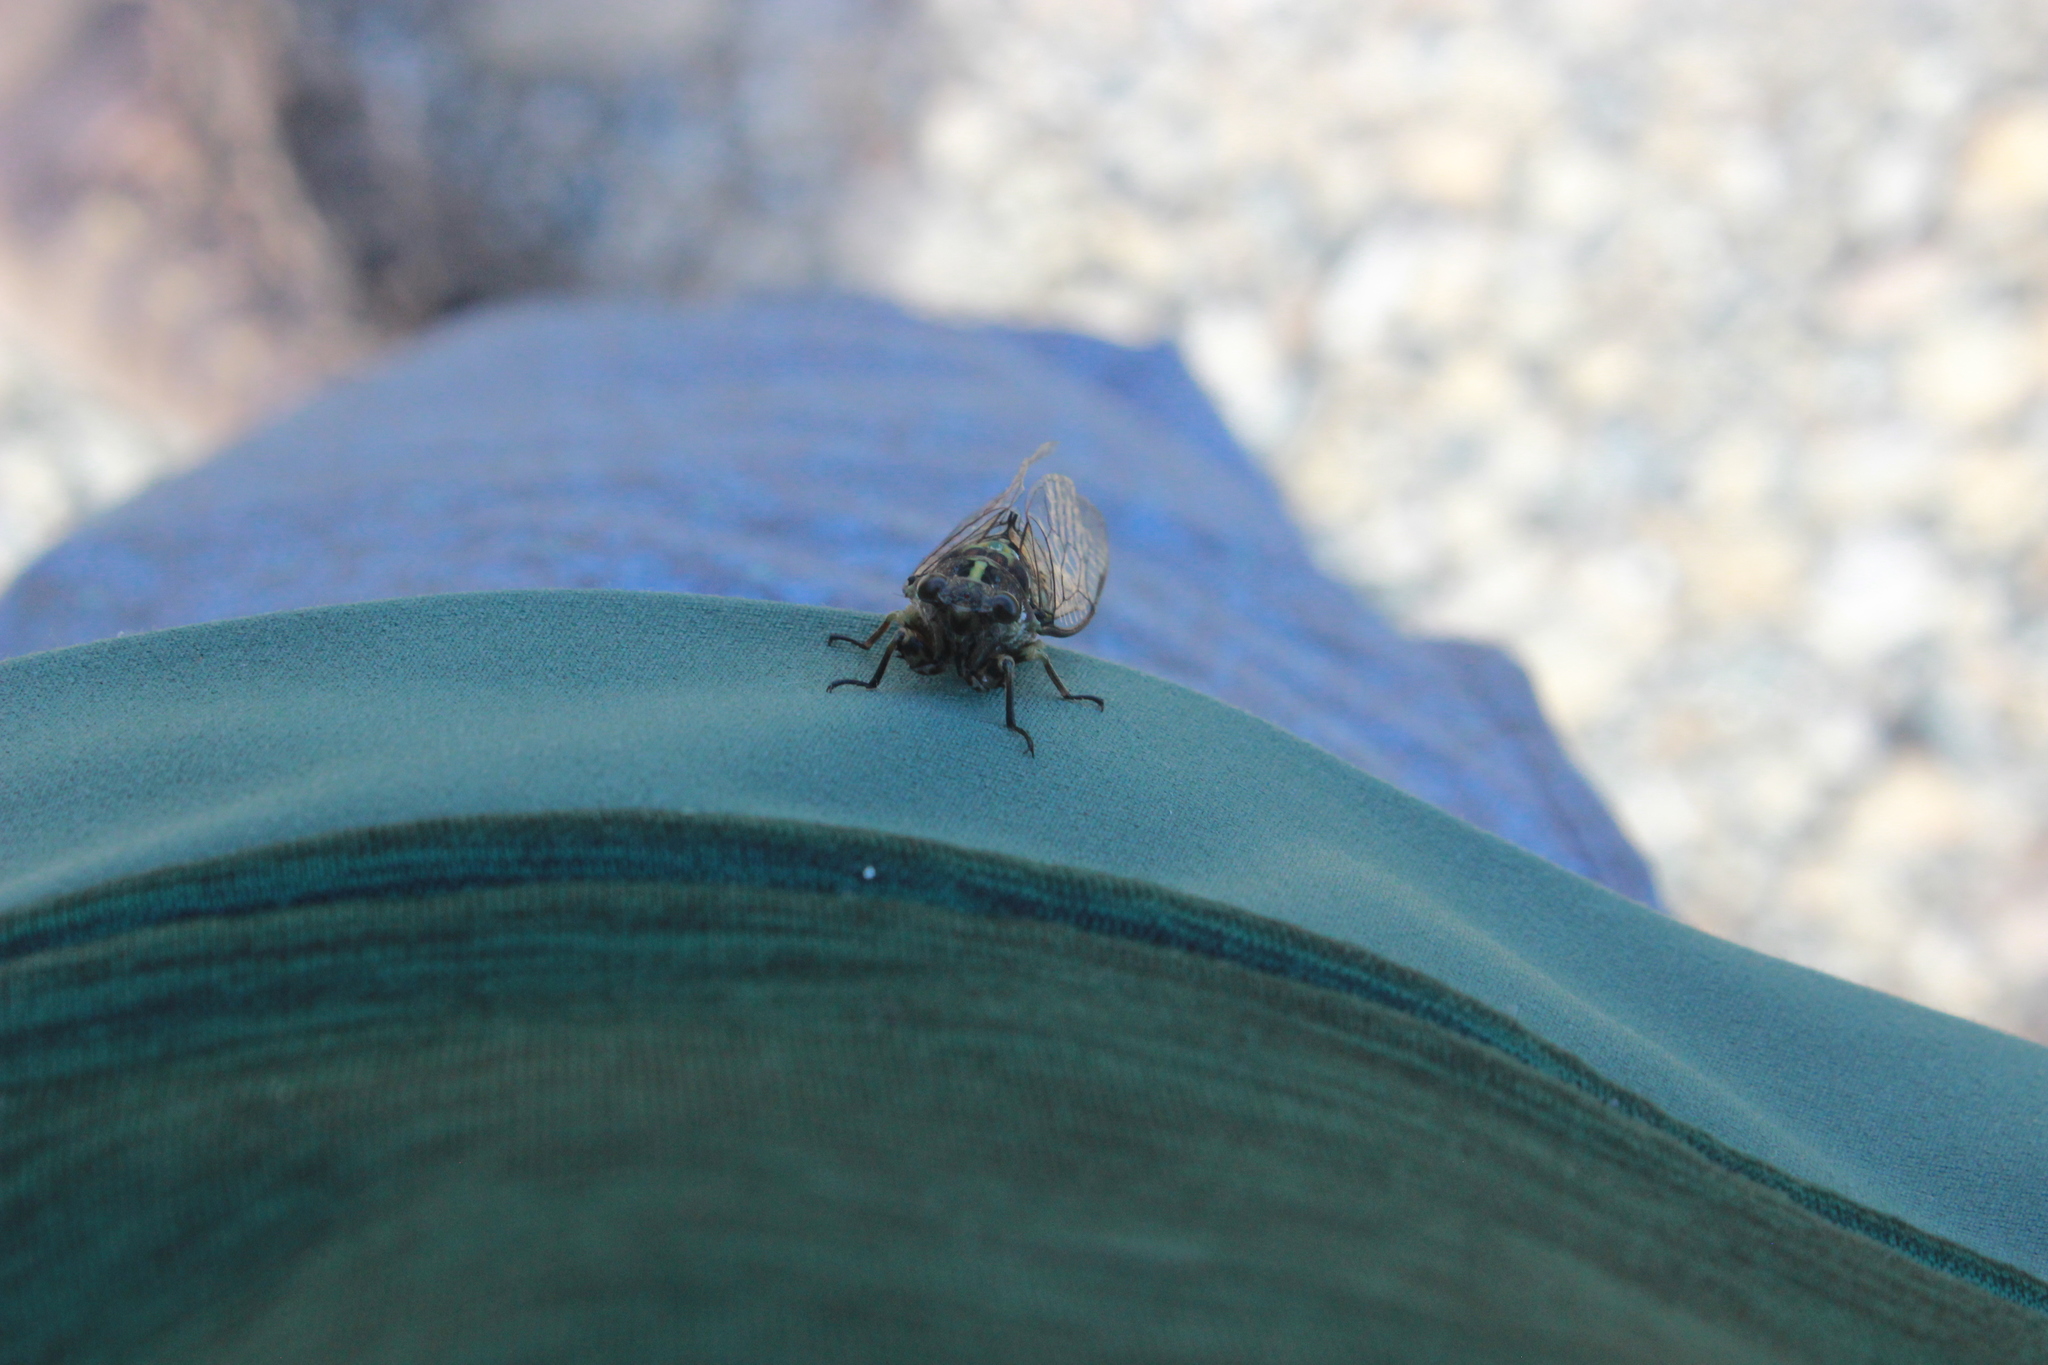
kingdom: Animalia
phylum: Arthropoda
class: Insecta
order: Hemiptera
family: Cicadidae
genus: Kikihia
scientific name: Kikihia cauta
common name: Greater bronze cicada
